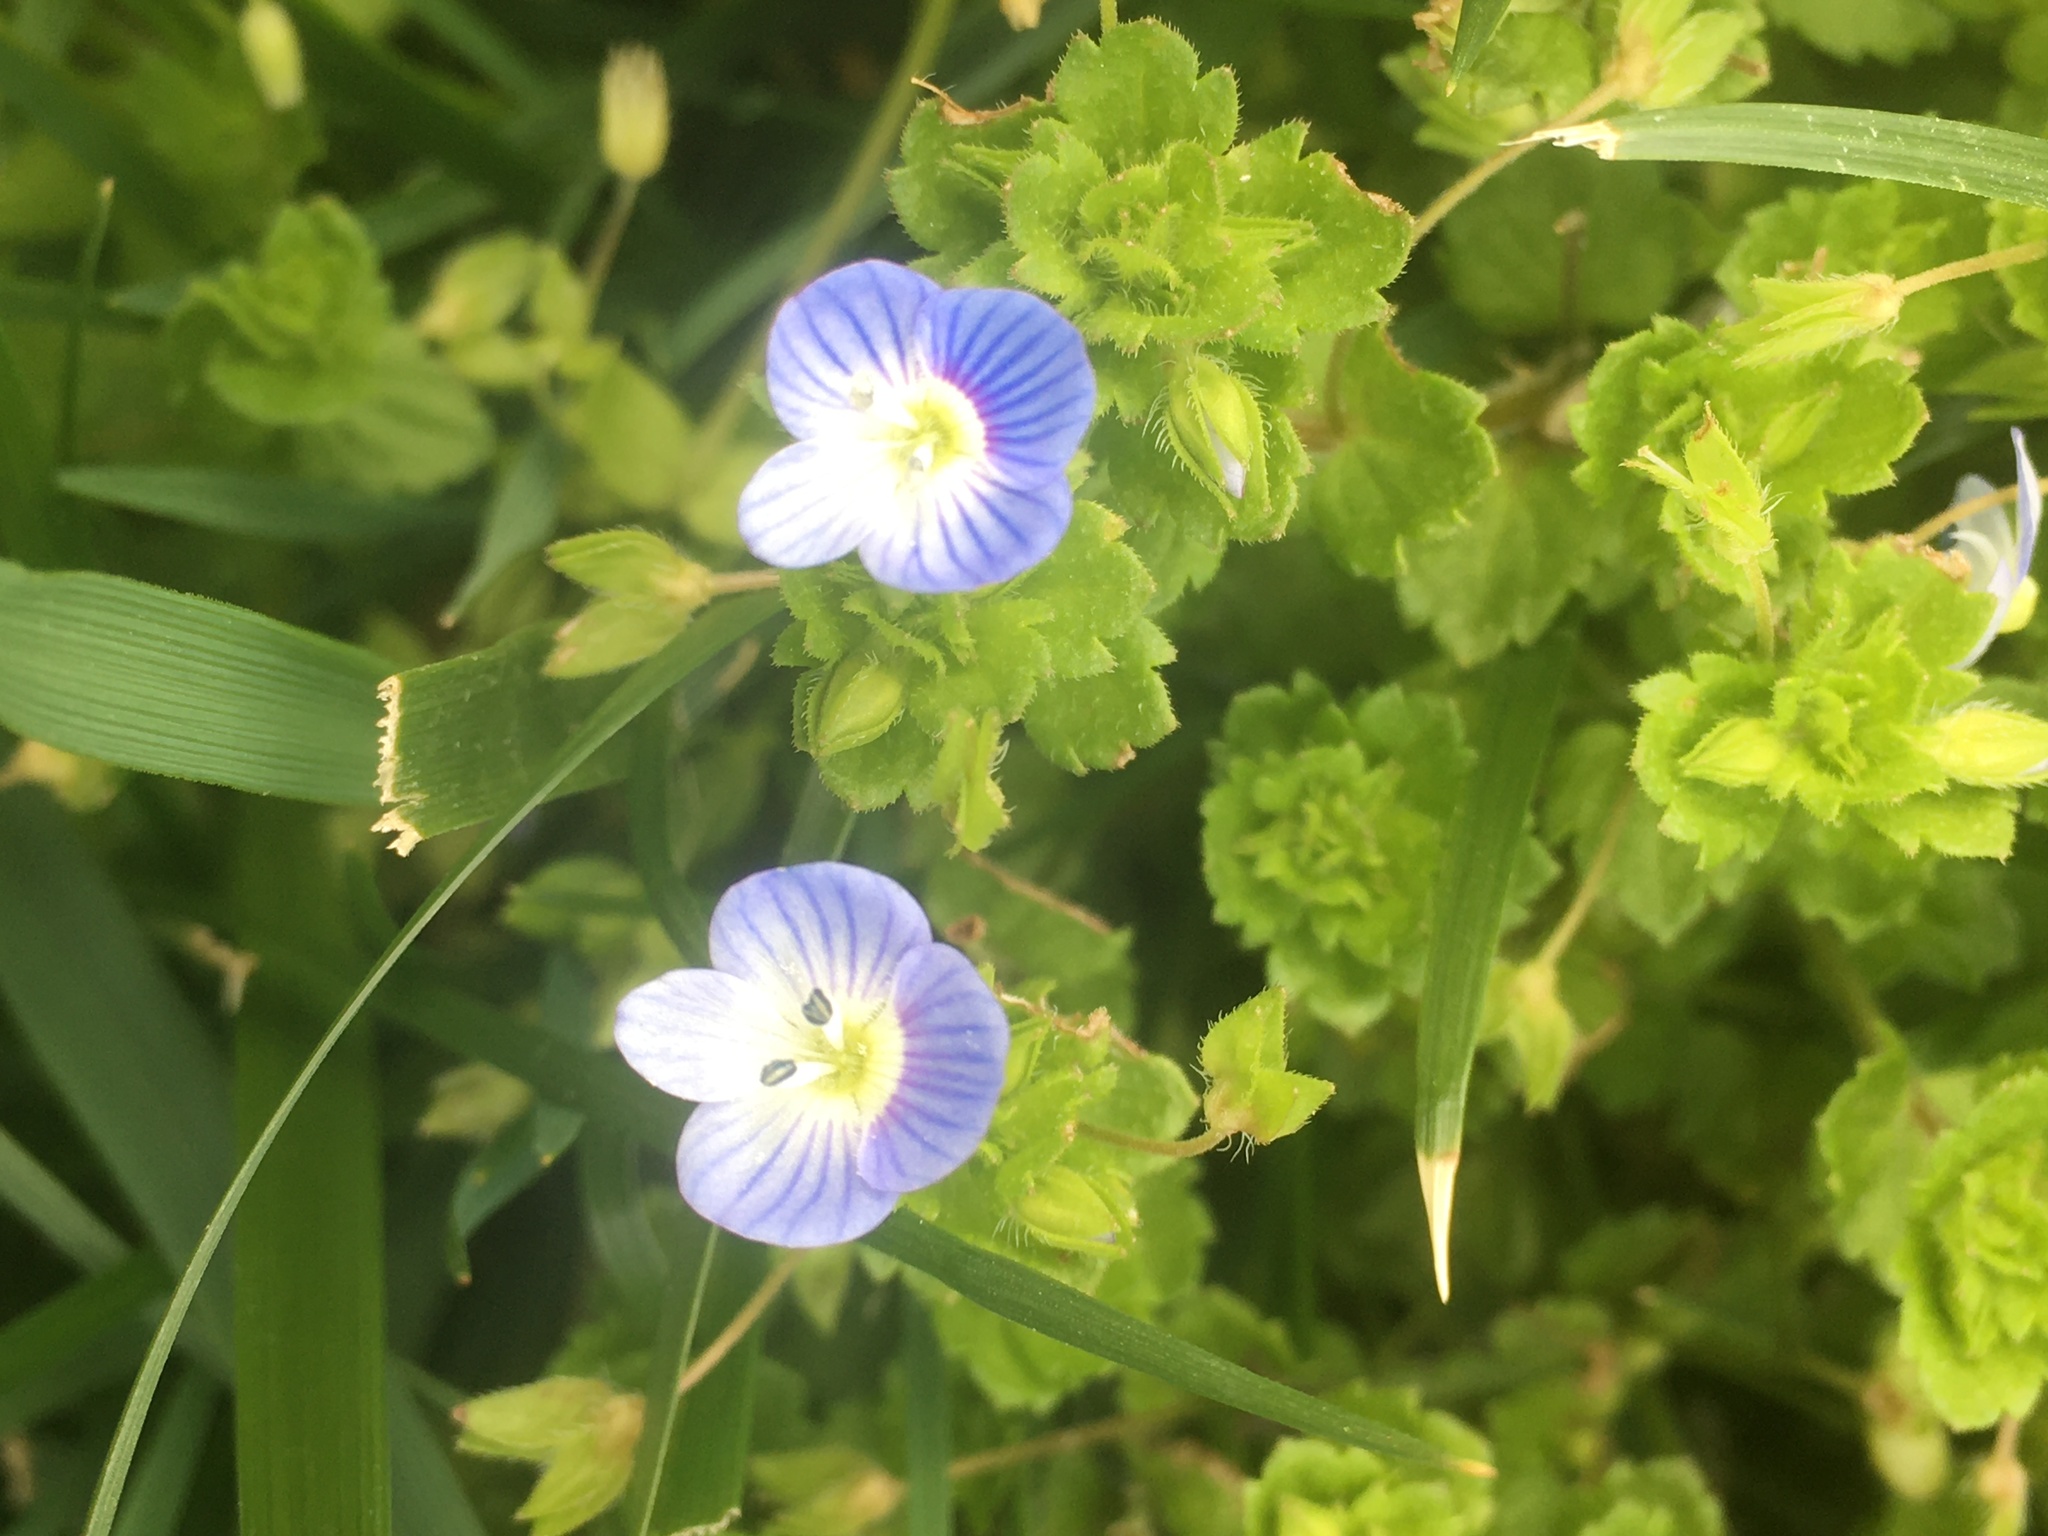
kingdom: Plantae
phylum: Tracheophyta
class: Magnoliopsida
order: Lamiales
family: Plantaginaceae
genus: Veronica
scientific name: Veronica persica
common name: Common field-speedwell
